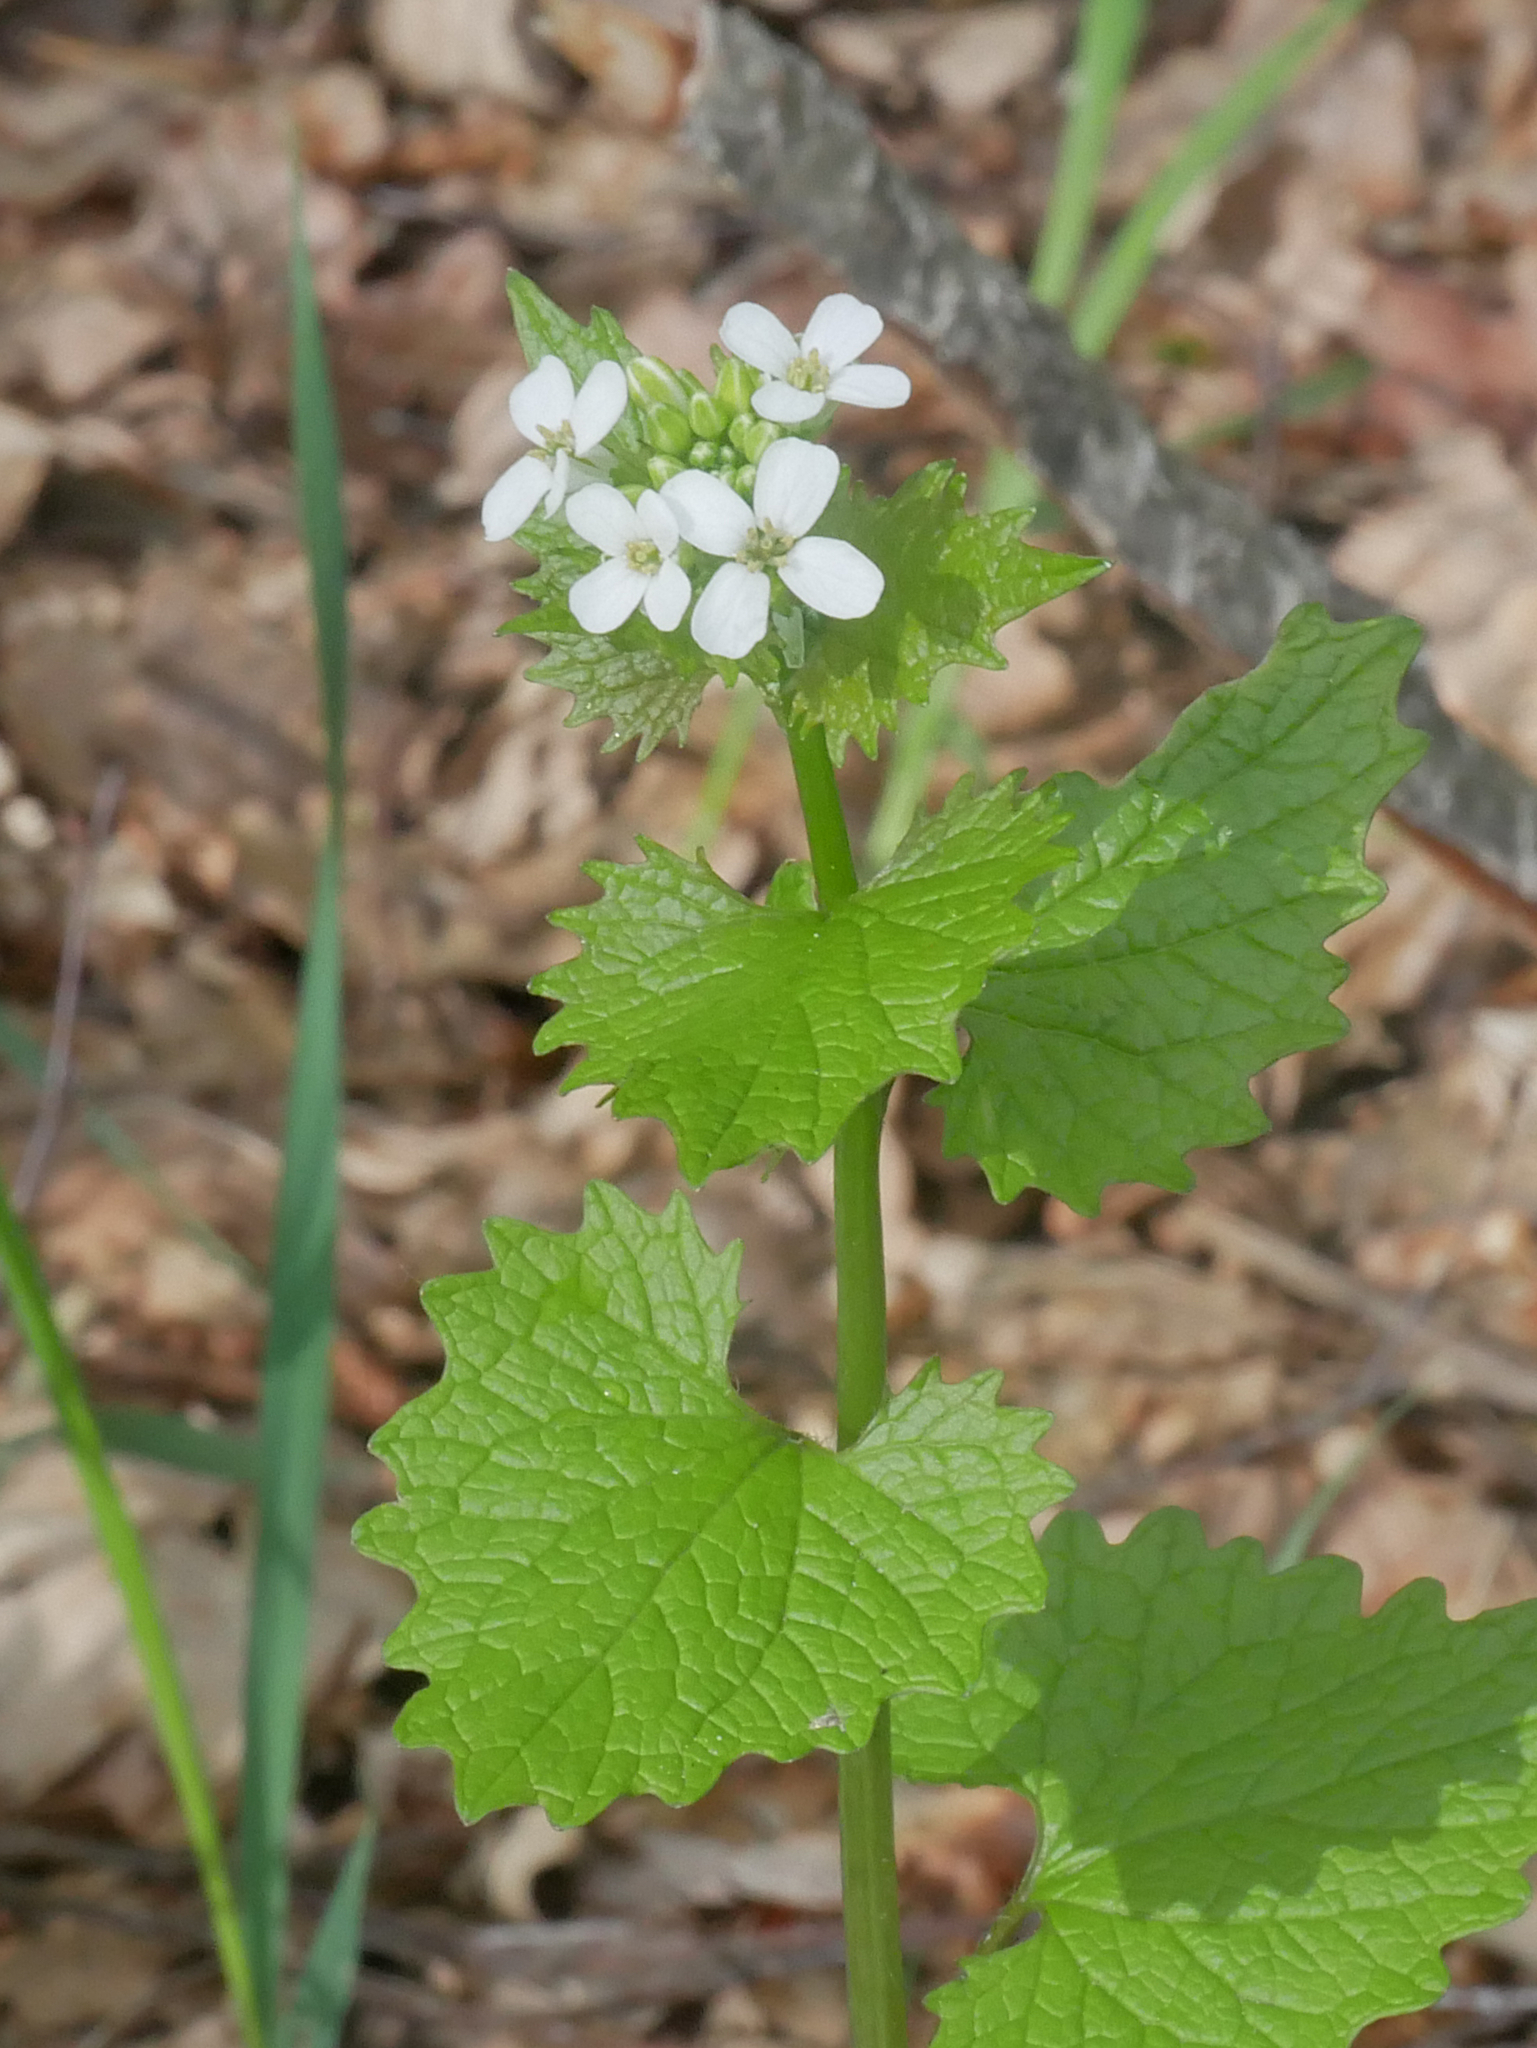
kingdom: Plantae
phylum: Tracheophyta
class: Magnoliopsida
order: Brassicales
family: Brassicaceae
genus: Alliaria
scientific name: Alliaria petiolata
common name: Garlic mustard
